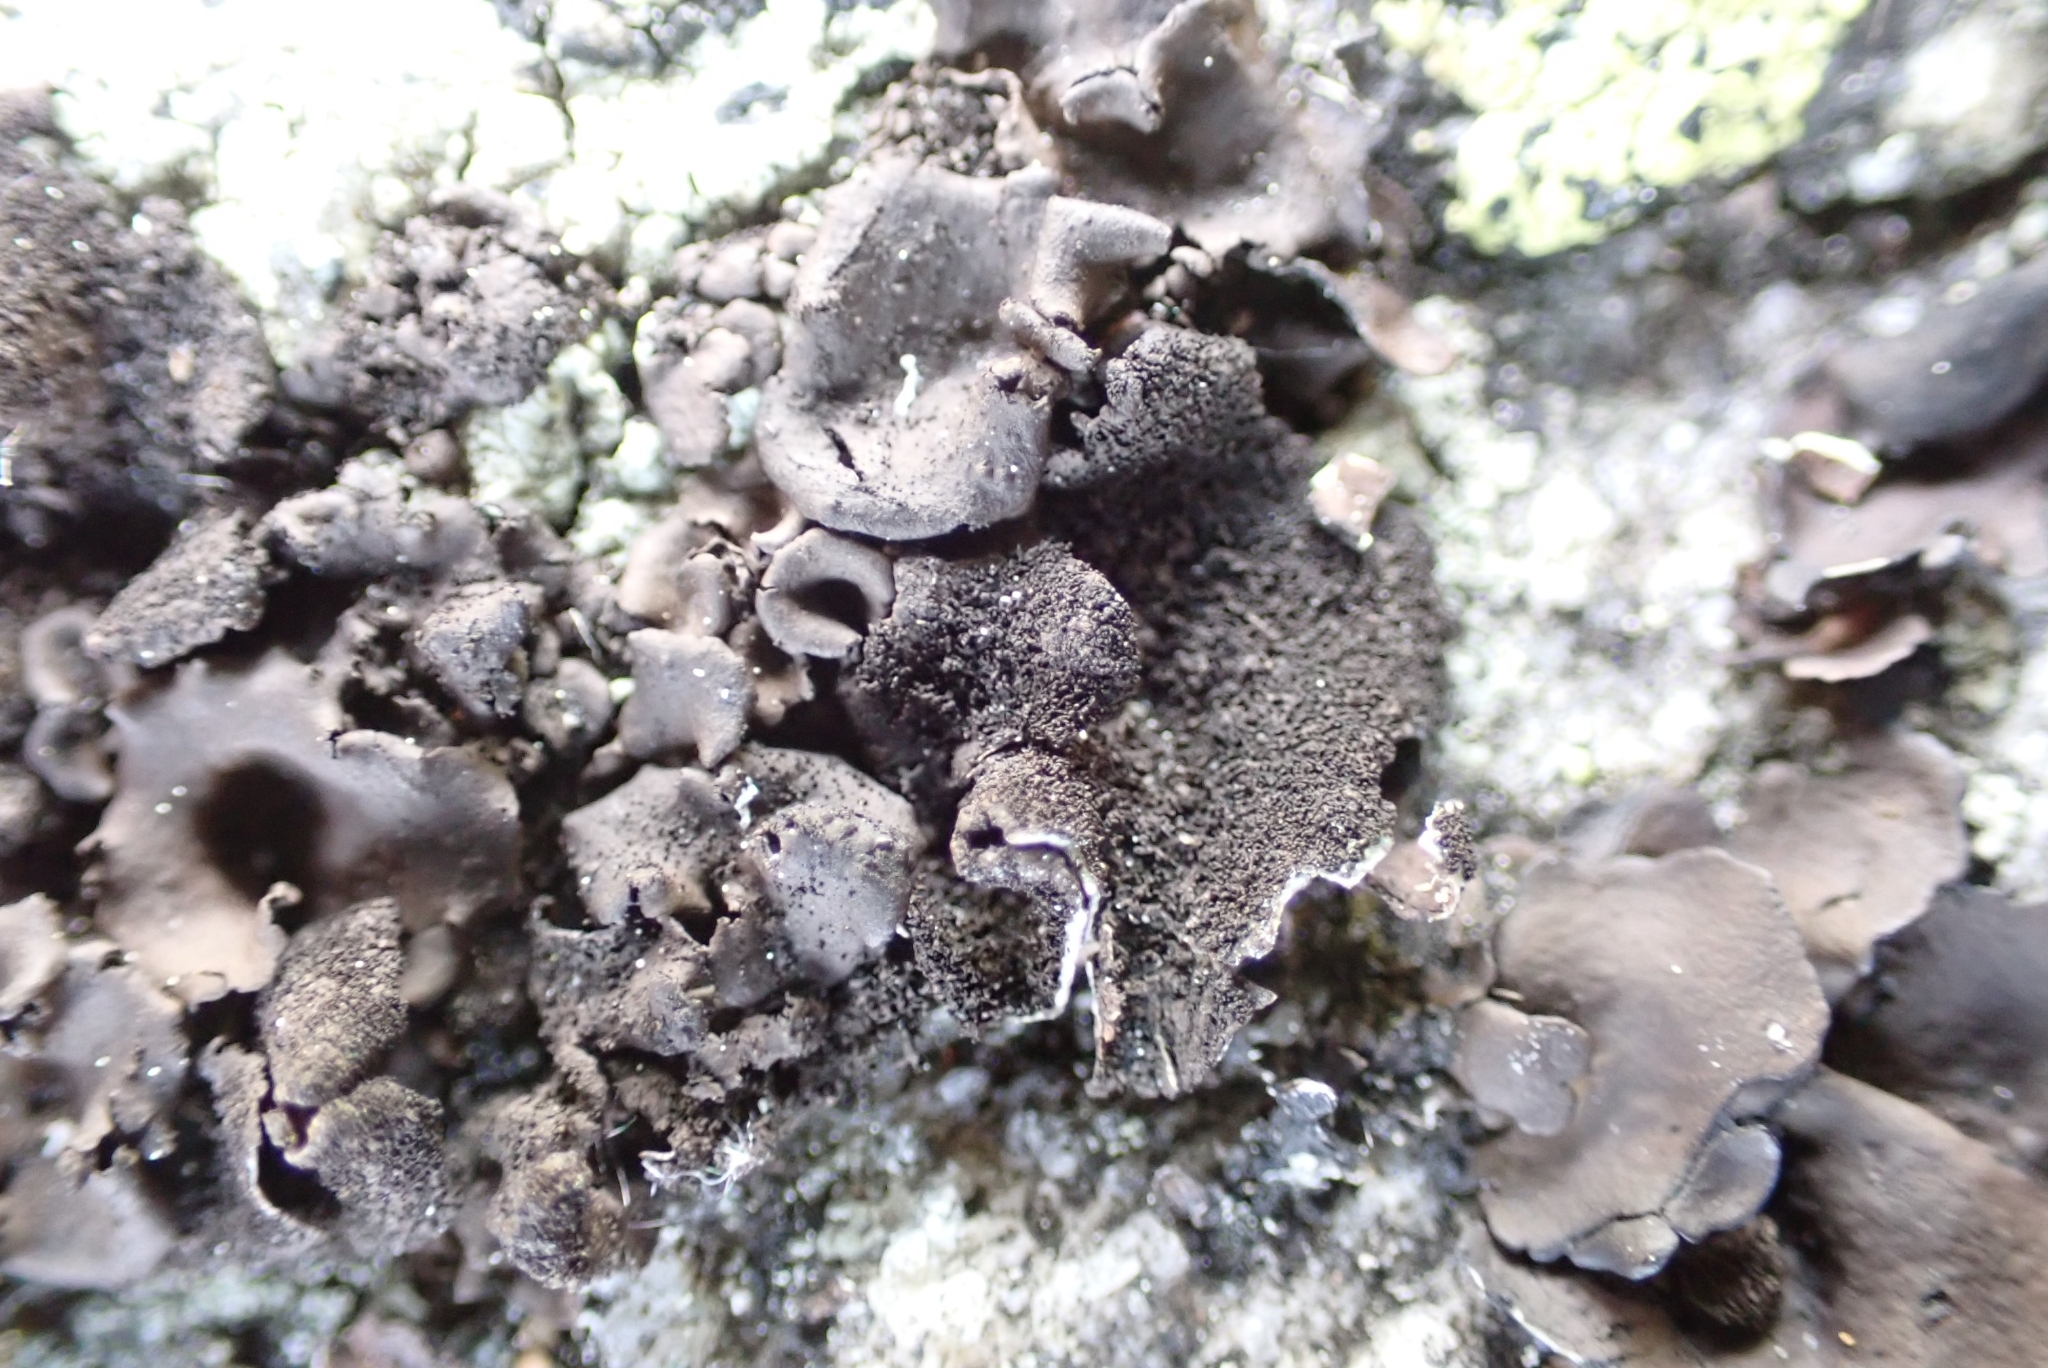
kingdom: Fungi
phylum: Ascomycota
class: Lecanoromycetes
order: Umbilicariales
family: Umbilicariaceae
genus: Umbilicaria
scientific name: Umbilicaria deusta
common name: Peppered rock tripe
